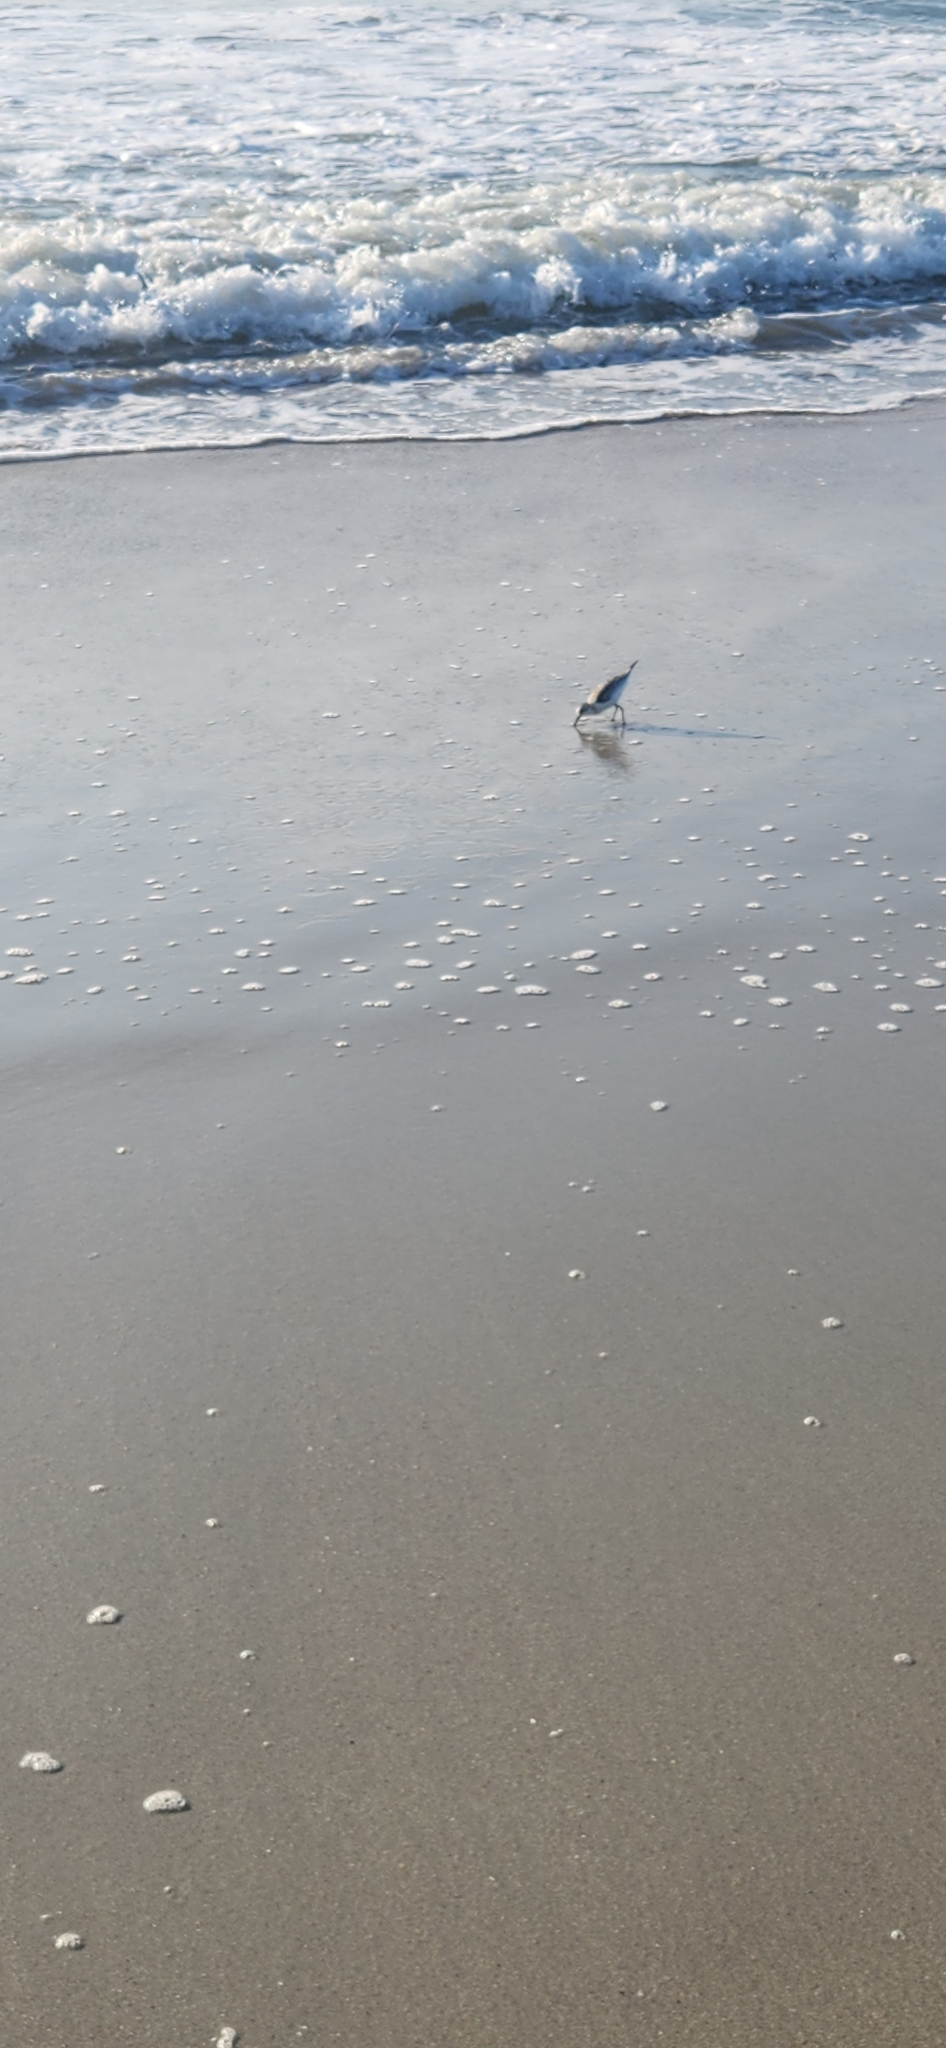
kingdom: Animalia
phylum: Chordata
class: Aves
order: Charadriiformes
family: Scolopacidae
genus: Calidris
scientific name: Calidris alba
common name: Sanderling
